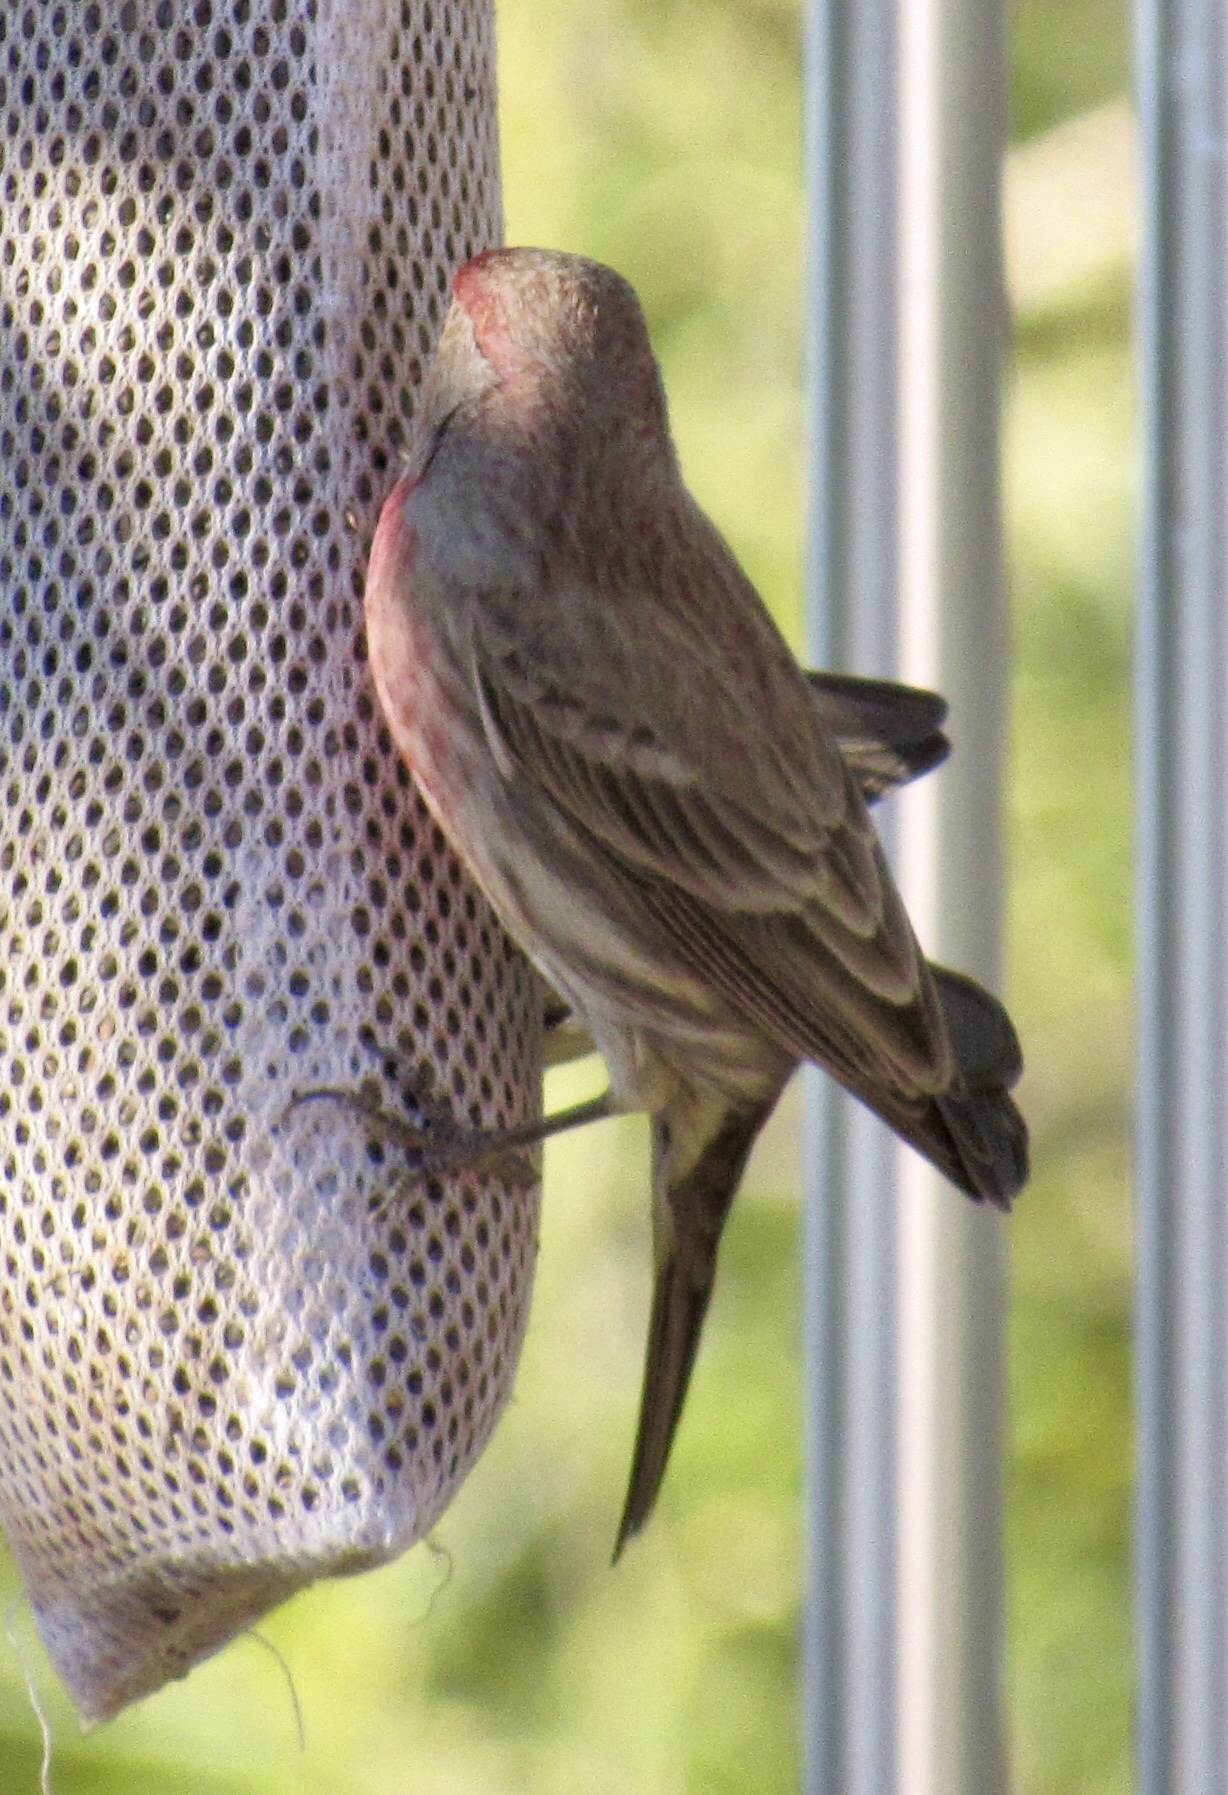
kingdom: Animalia
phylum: Chordata
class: Aves
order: Passeriformes
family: Fringillidae
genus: Haemorhous
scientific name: Haemorhous mexicanus
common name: House finch
